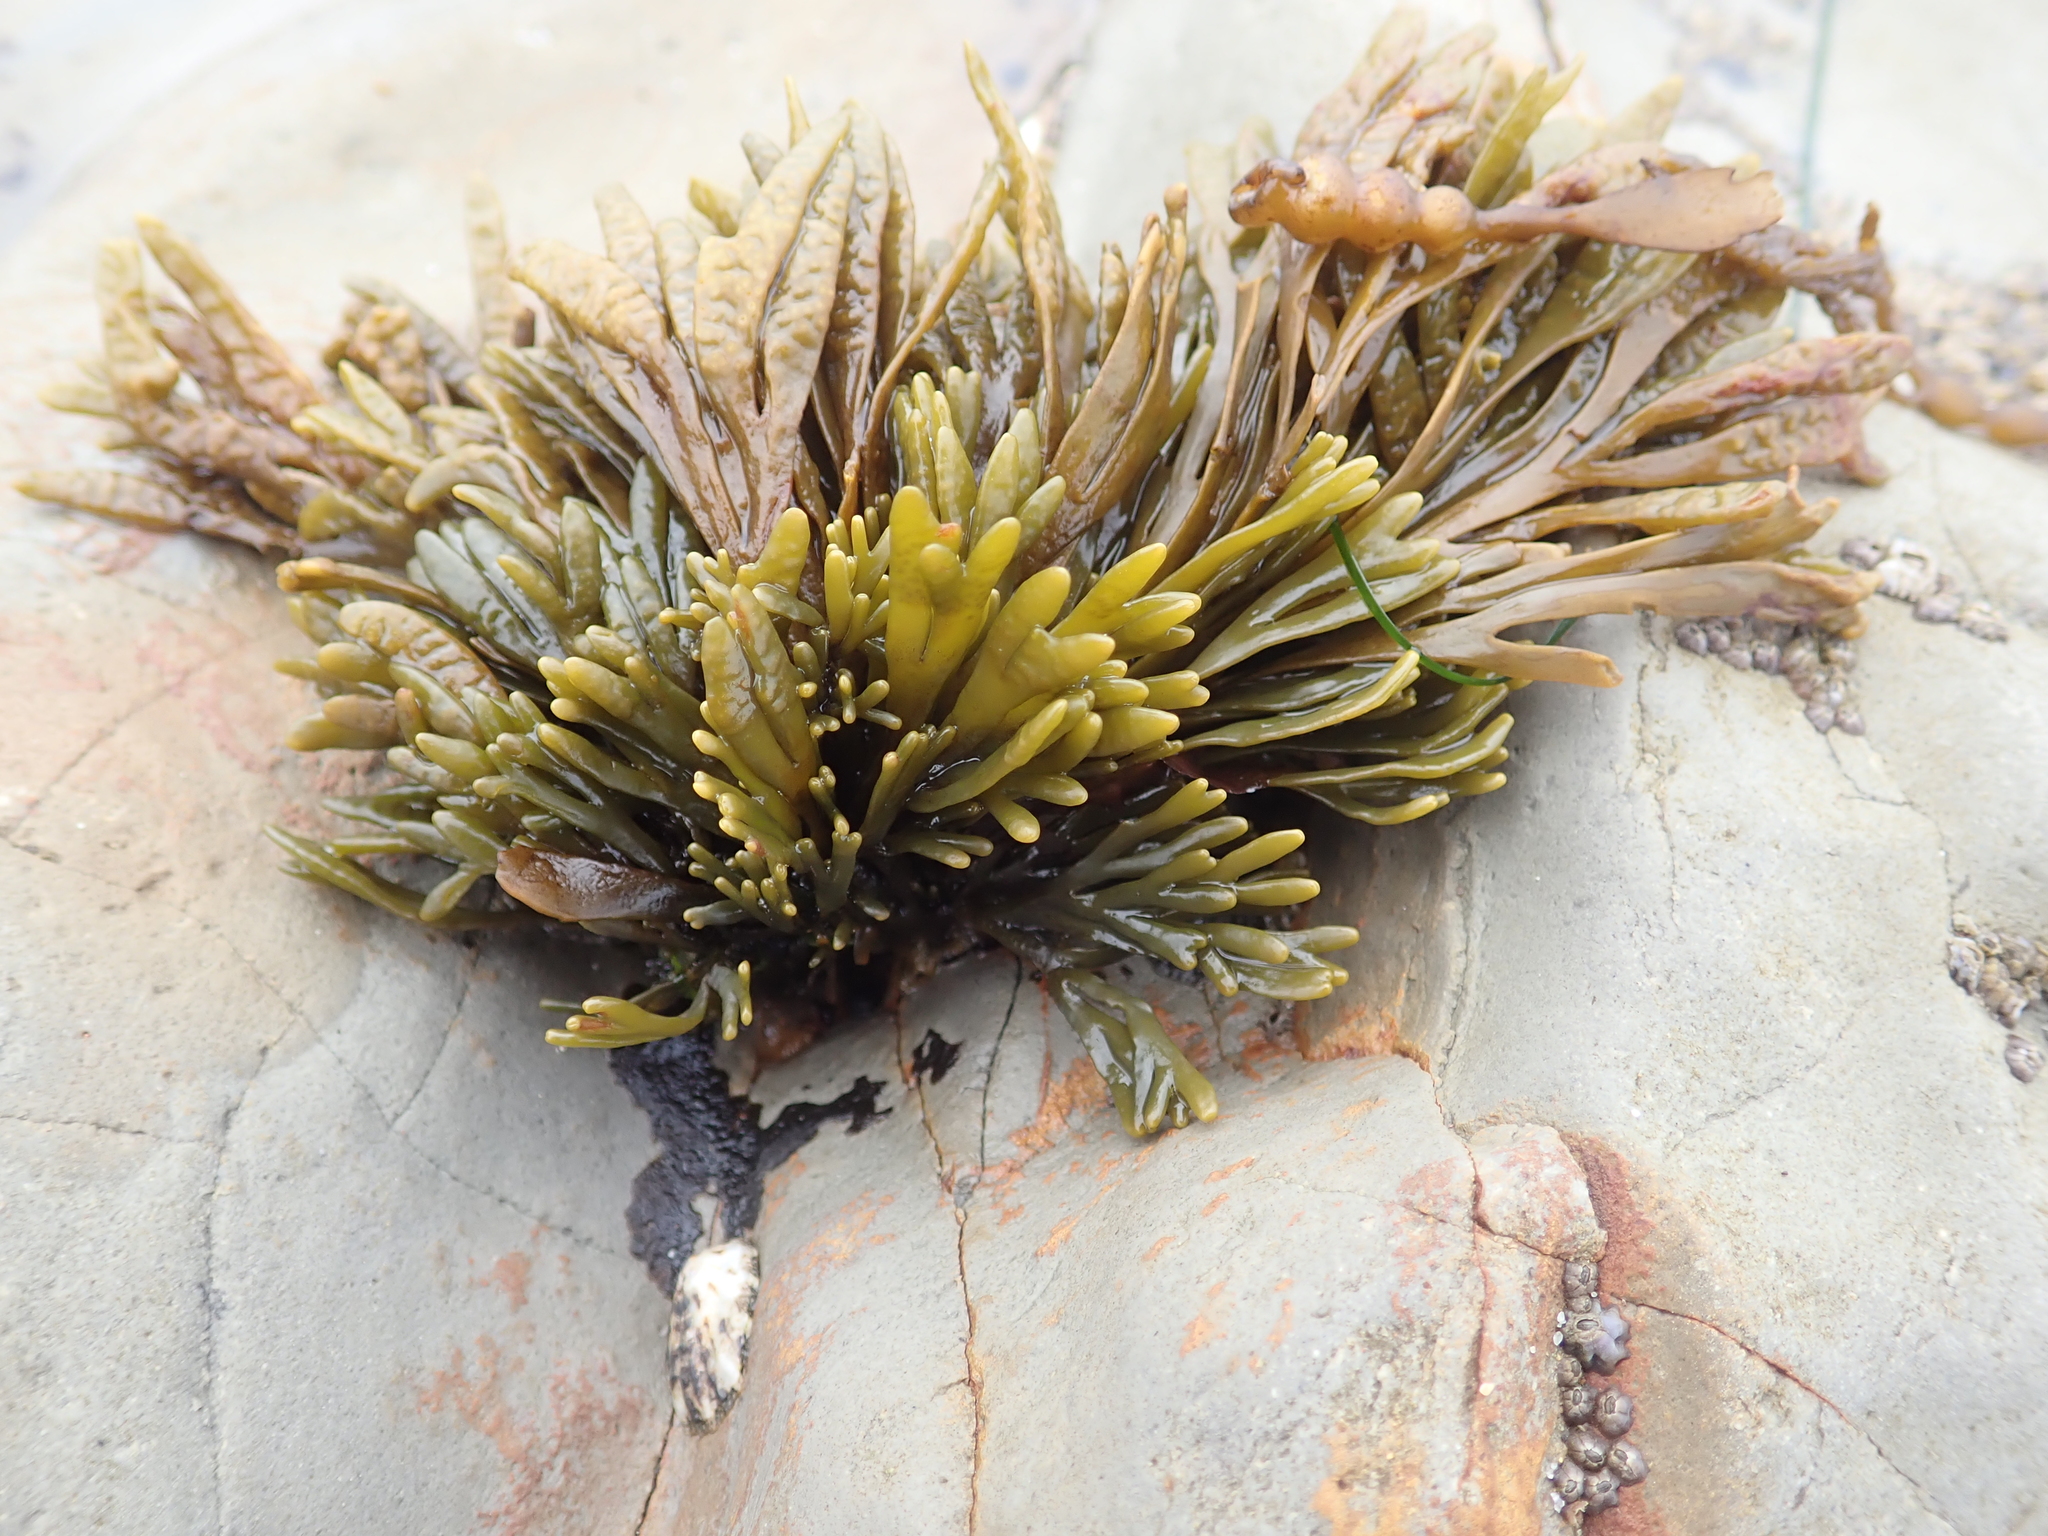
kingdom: Chromista
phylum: Ochrophyta
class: Phaeophyceae
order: Fucales
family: Fucaceae
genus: Pelvetiopsis
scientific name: Pelvetiopsis limitata
